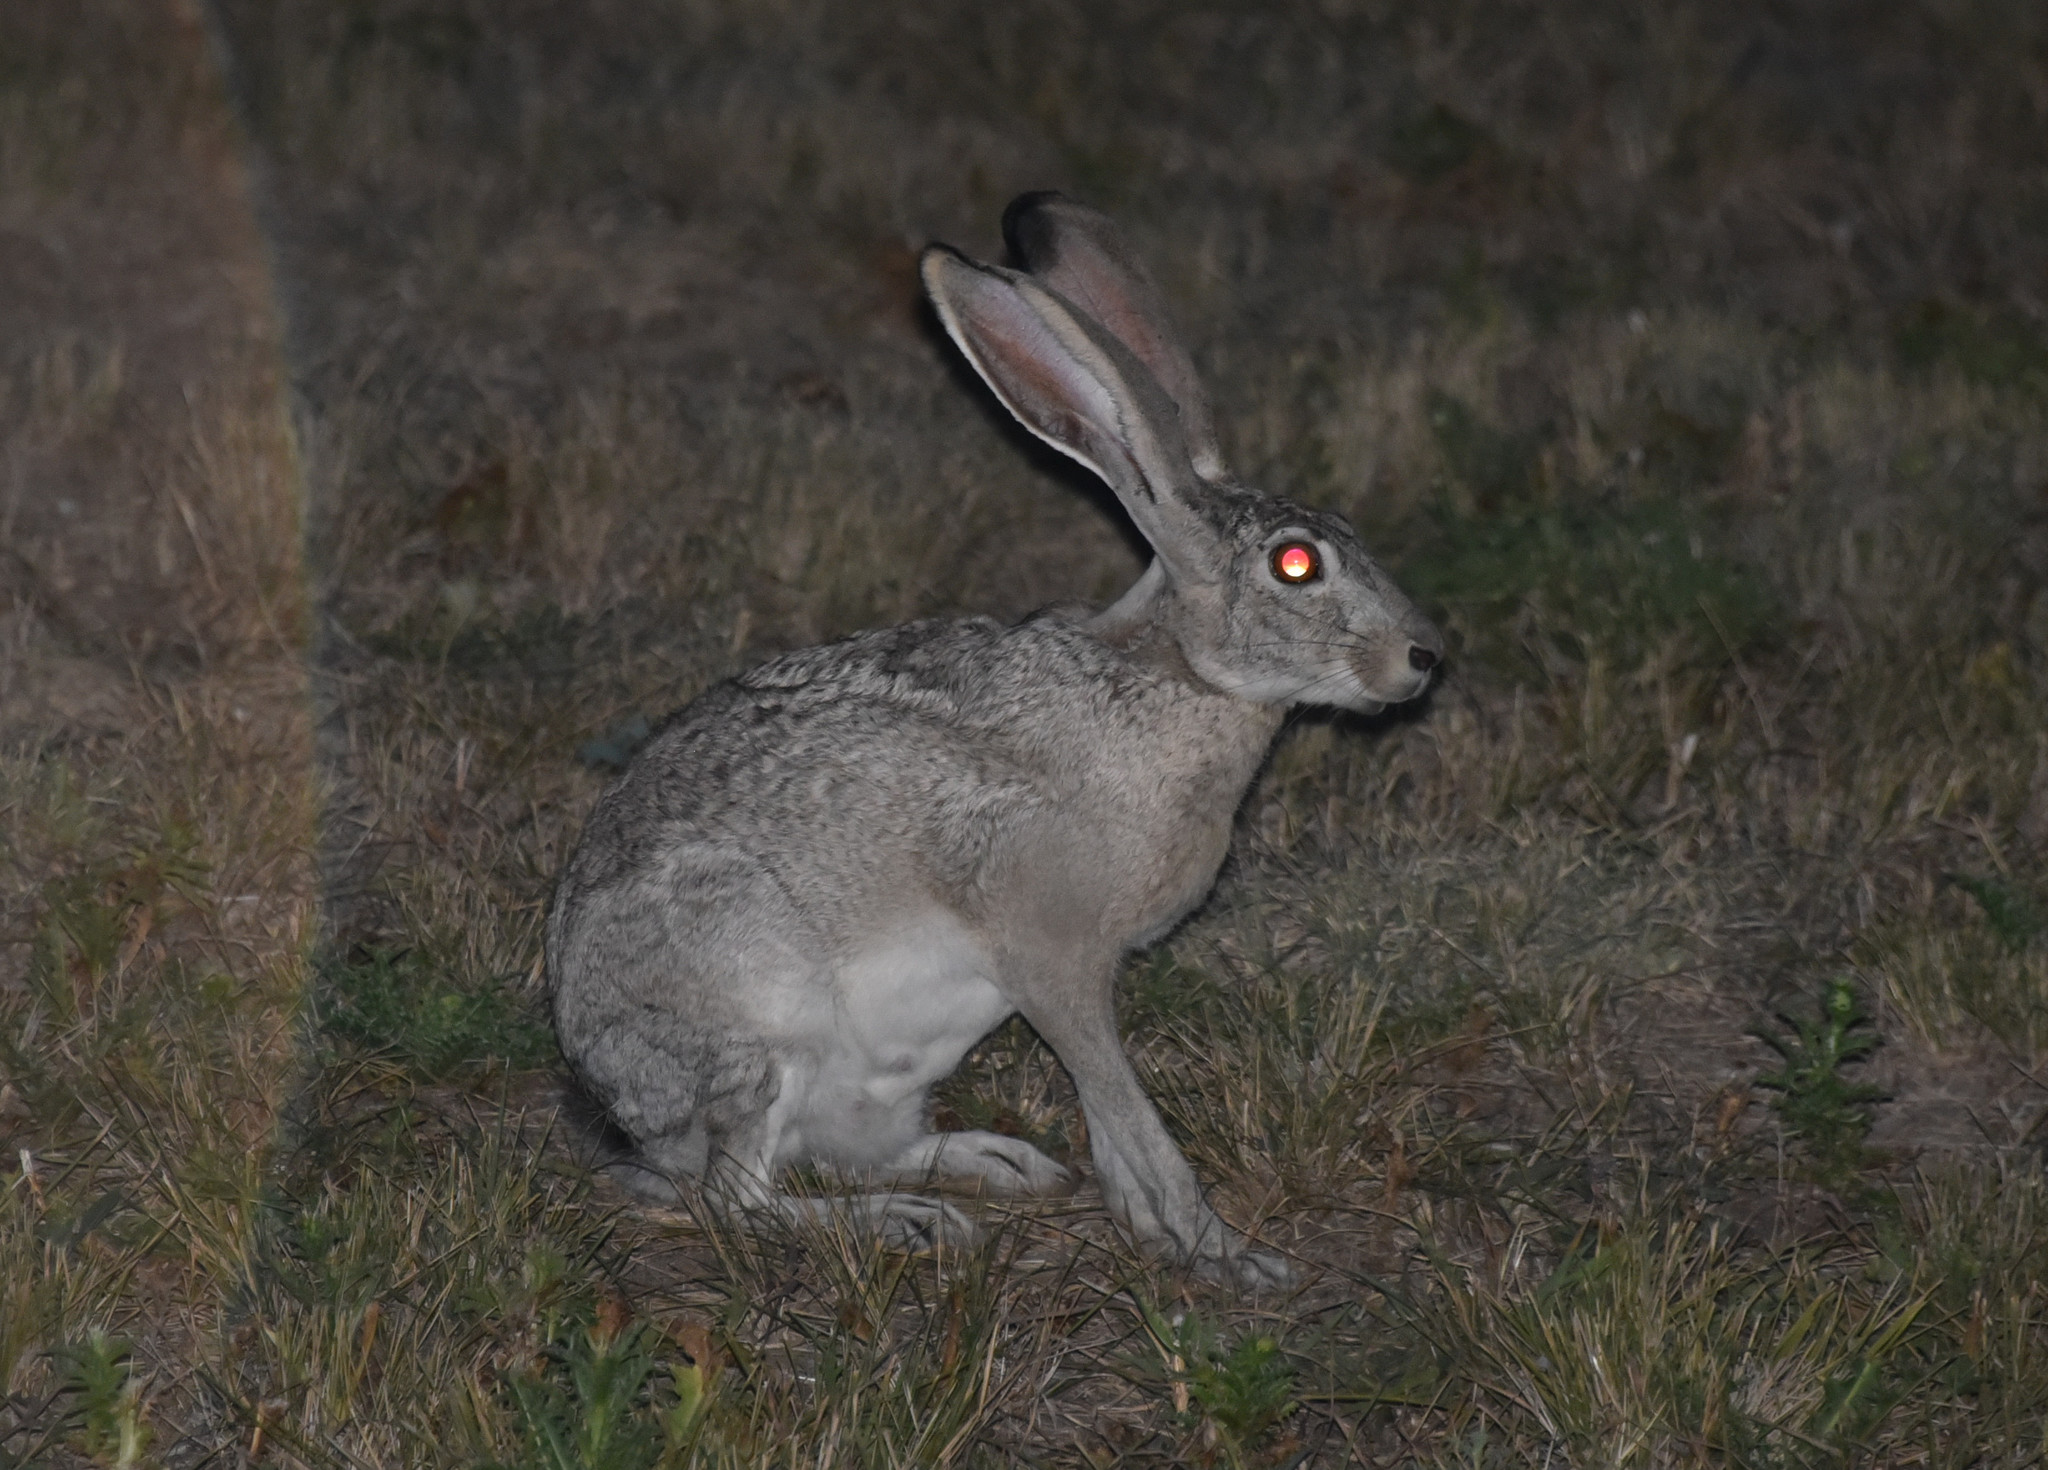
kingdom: Animalia
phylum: Chordata
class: Mammalia
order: Lagomorpha
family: Leporidae
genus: Lepus
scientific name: Lepus californicus
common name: Black-tailed jackrabbit
